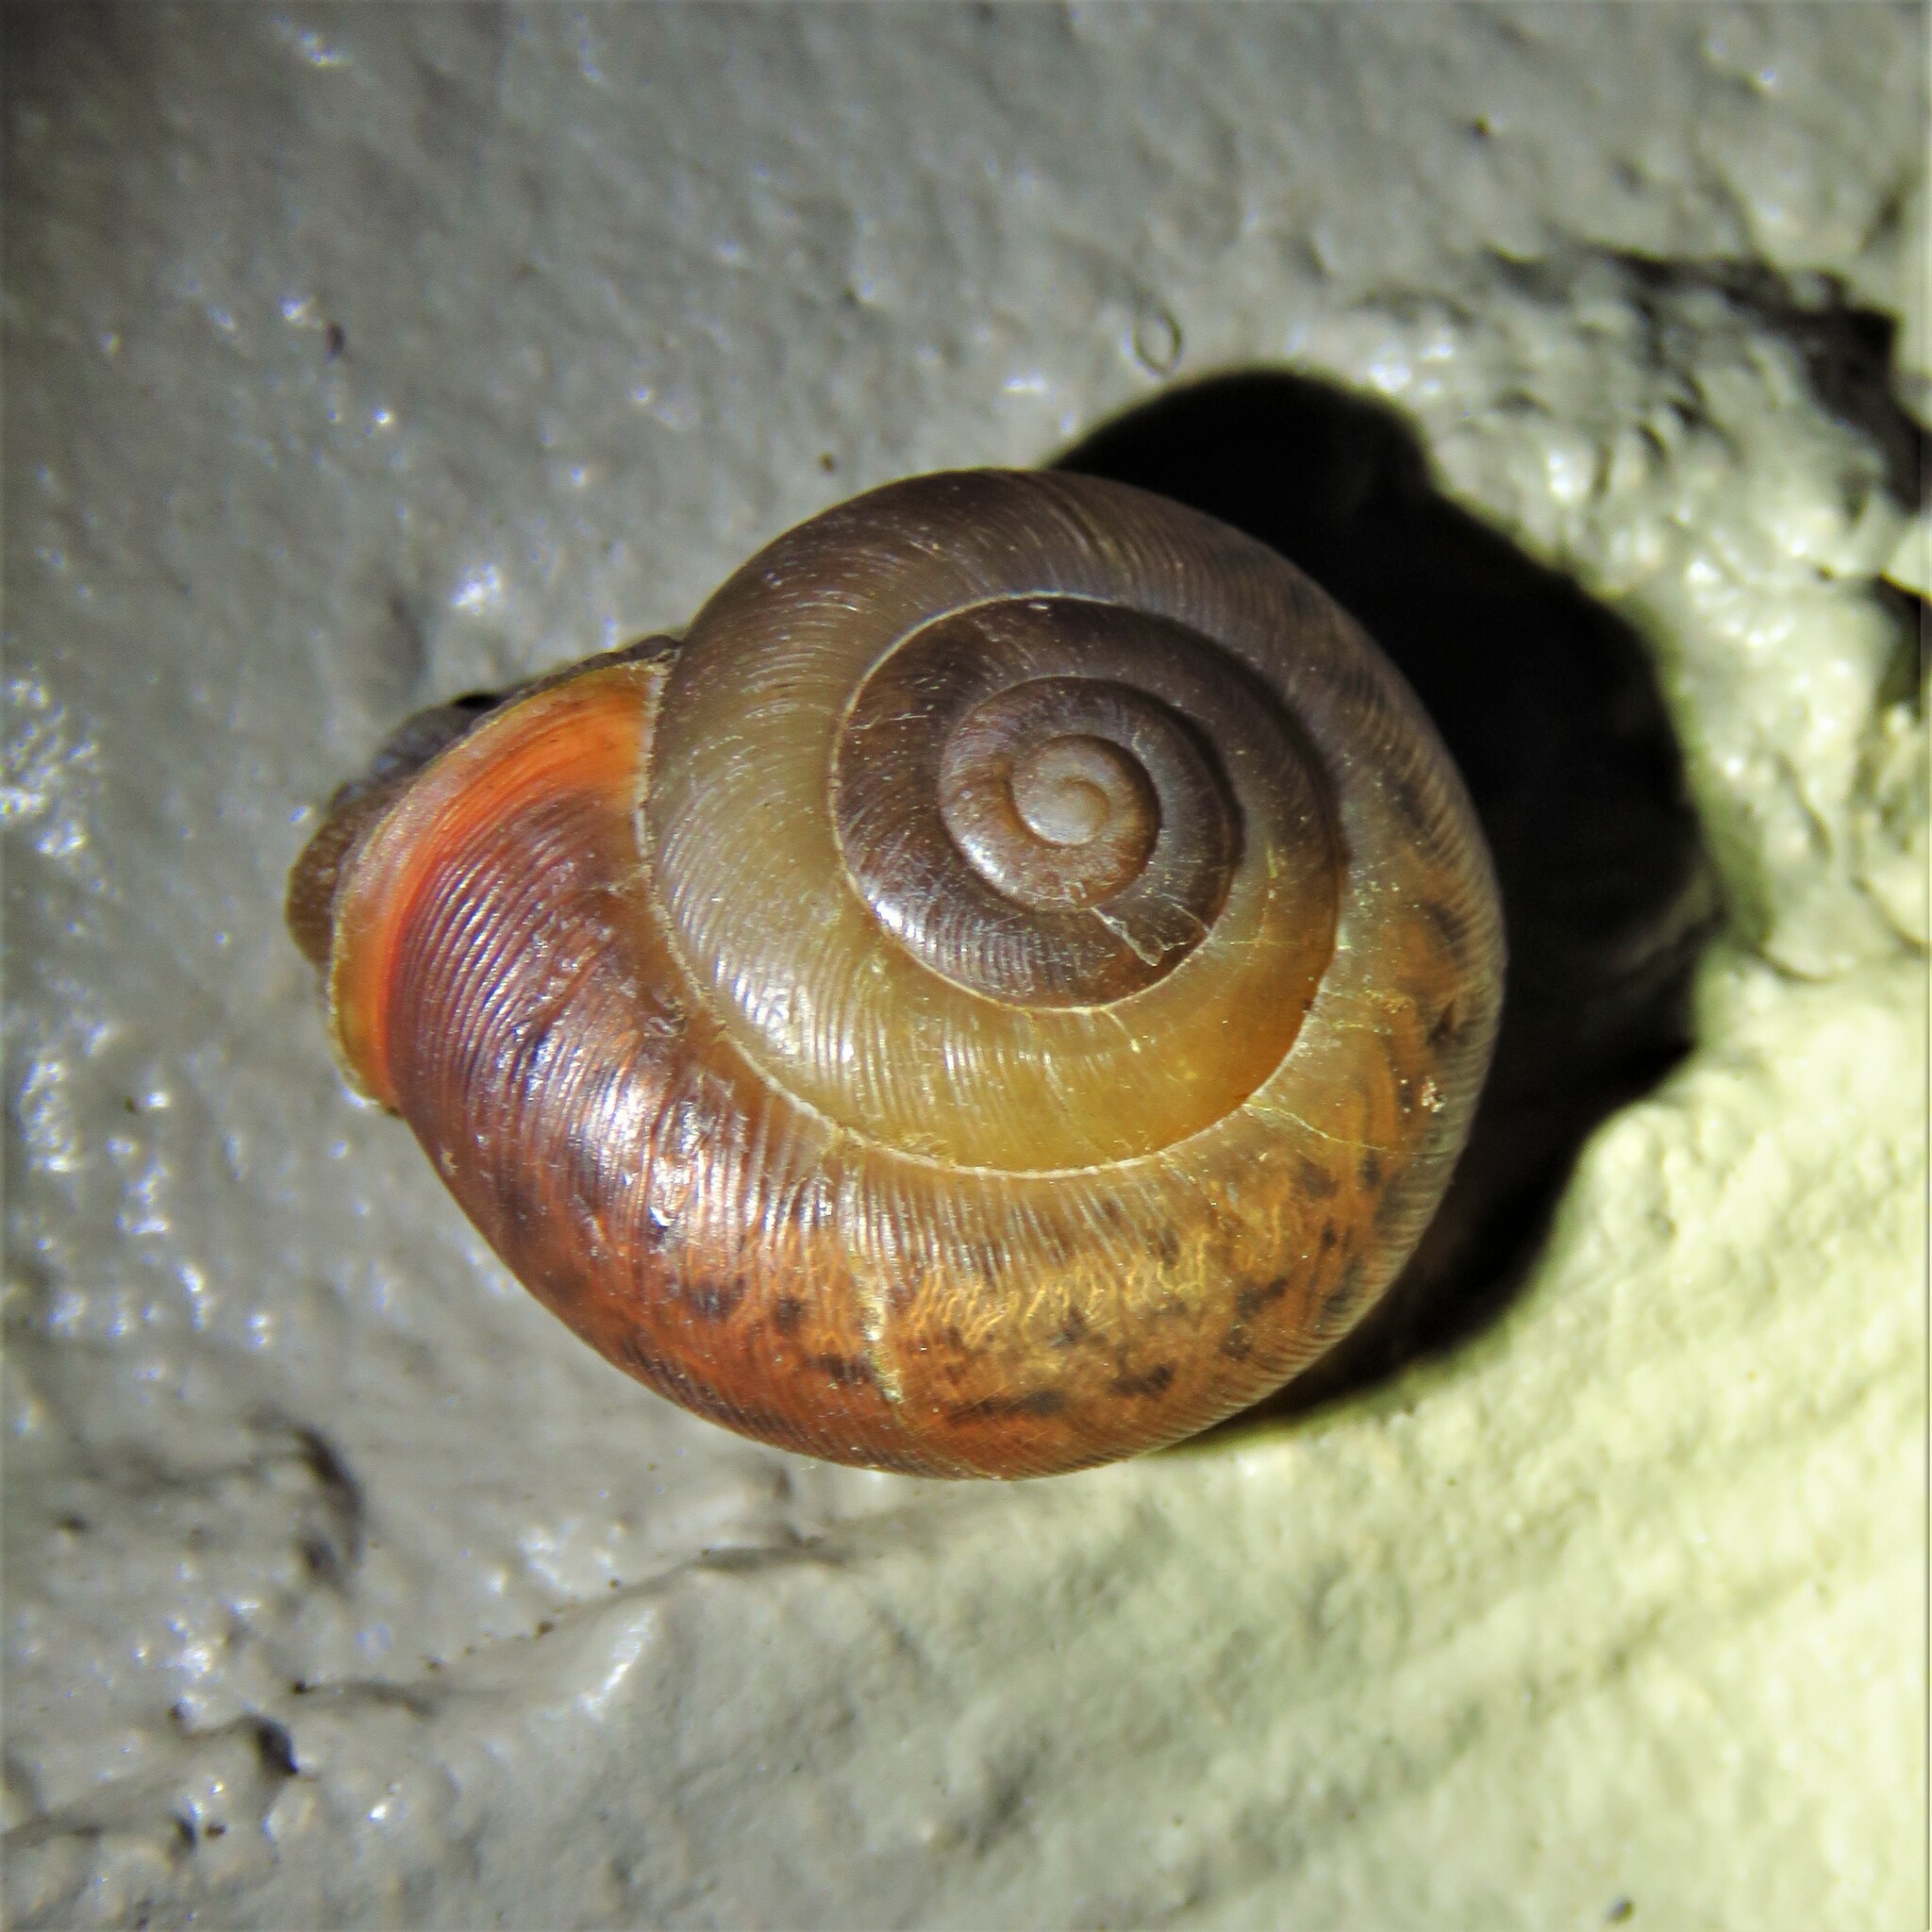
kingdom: Animalia
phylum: Mollusca
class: Gastropoda
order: Stylommatophora
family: Polygyridae
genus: Mesodon
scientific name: Mesodon thyroidus
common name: White-lip globe
